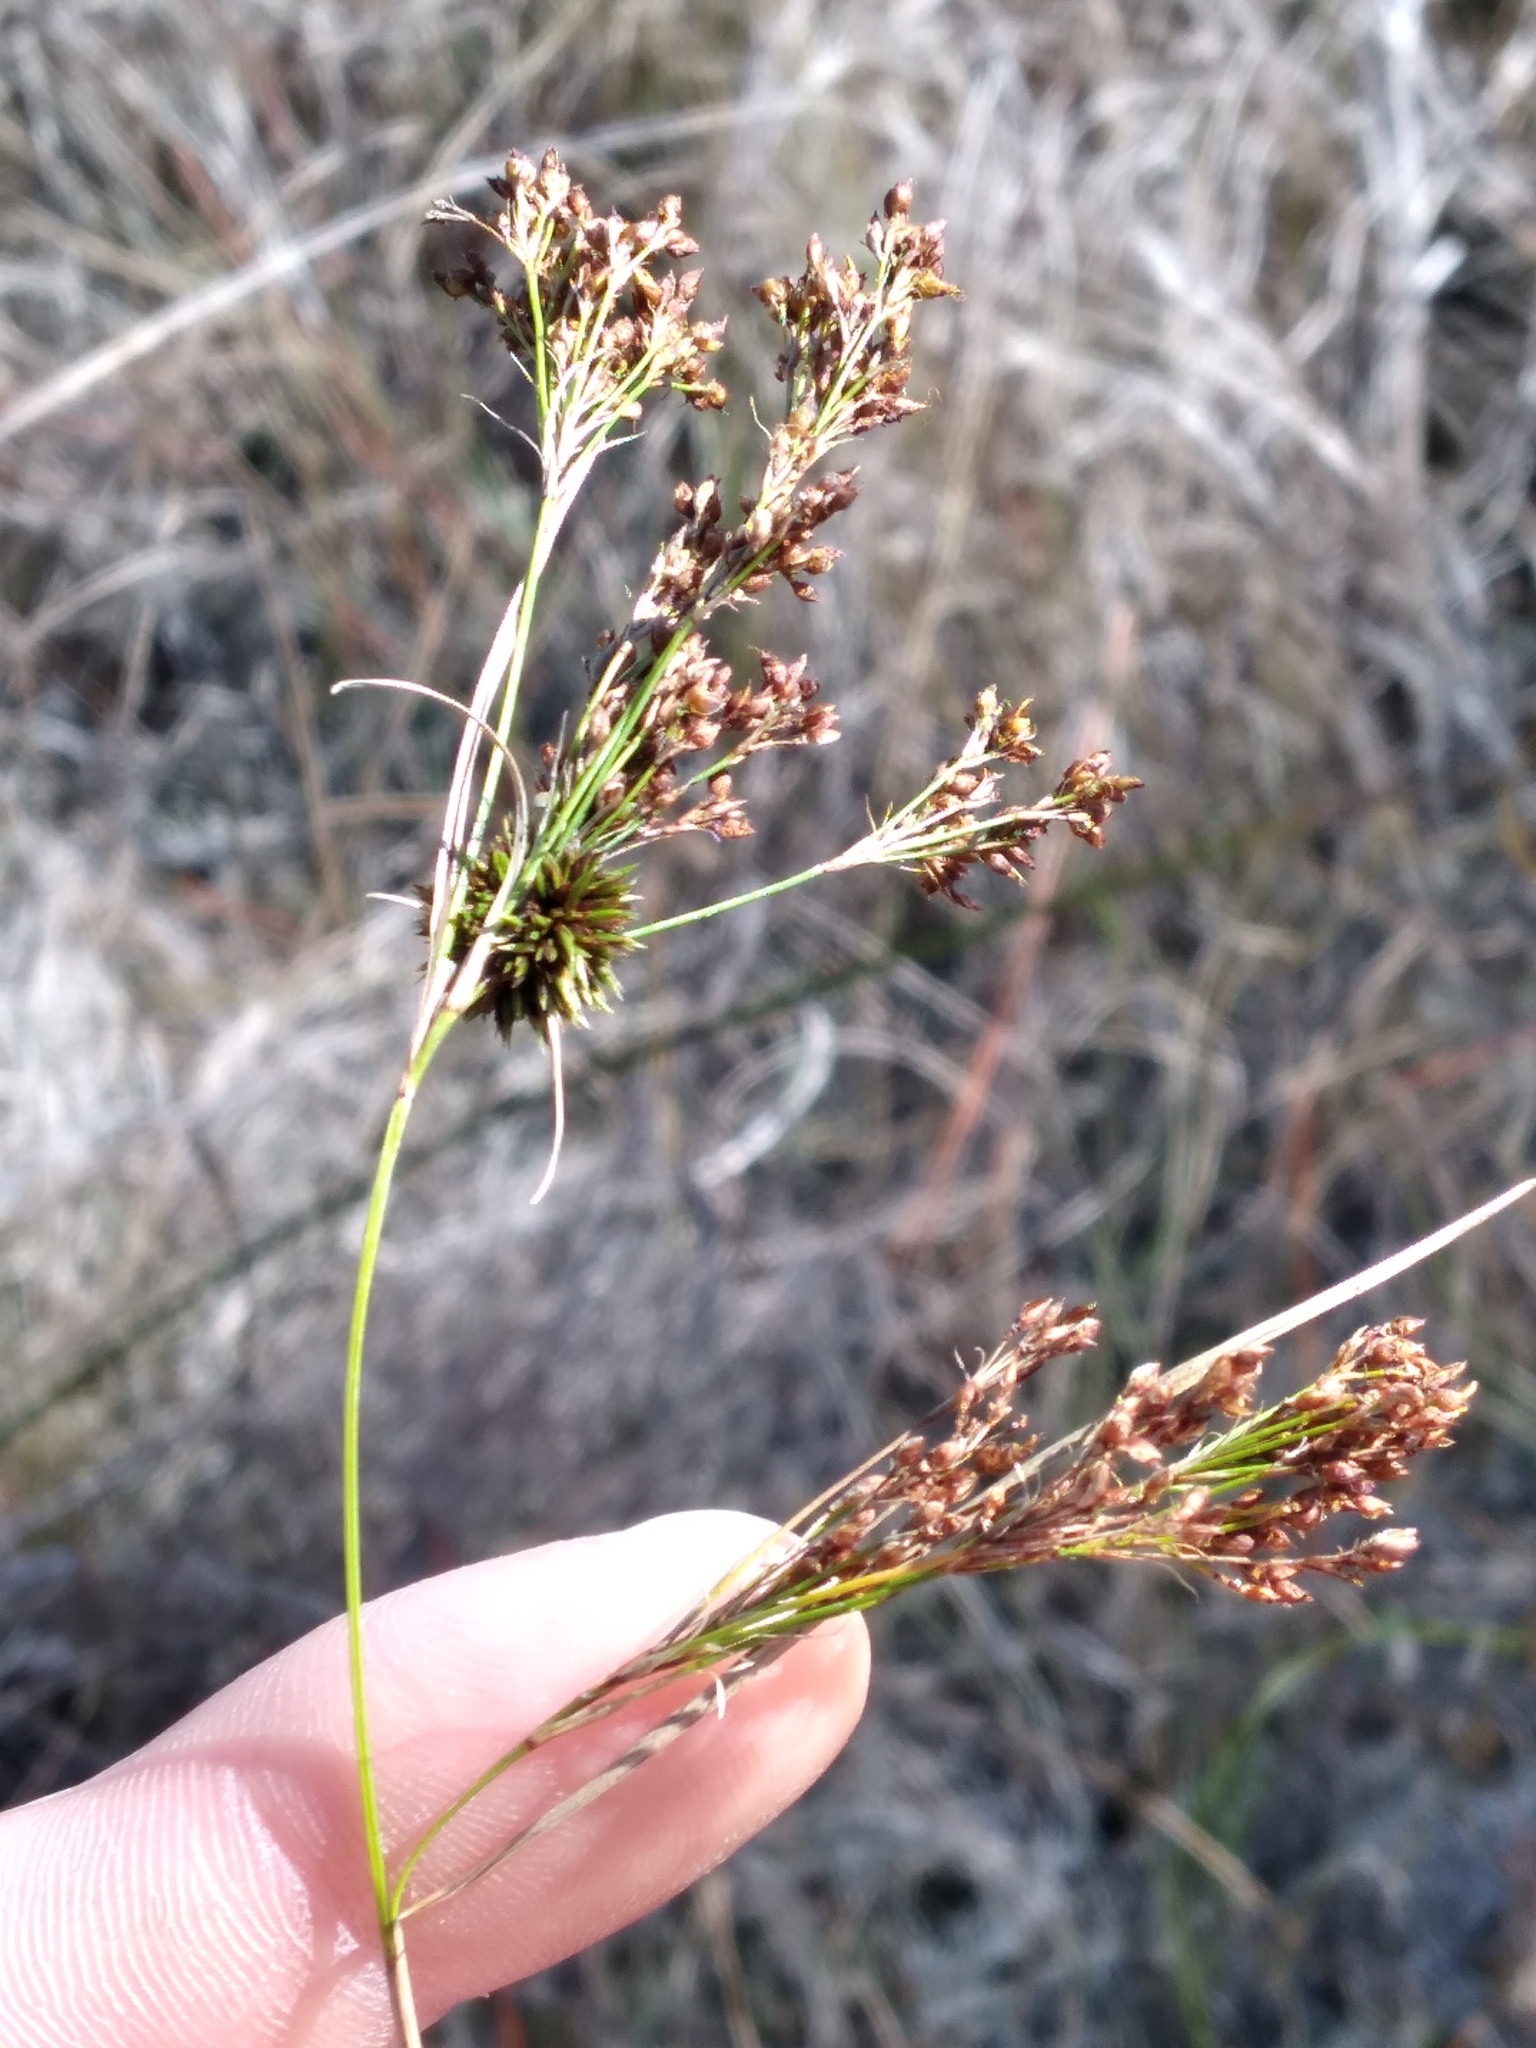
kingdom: Plantae
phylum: Tracheophyta
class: Liliopsida
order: Poales
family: Cyperaceae
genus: Rhynchospora
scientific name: Rhynchospora microcarpa
